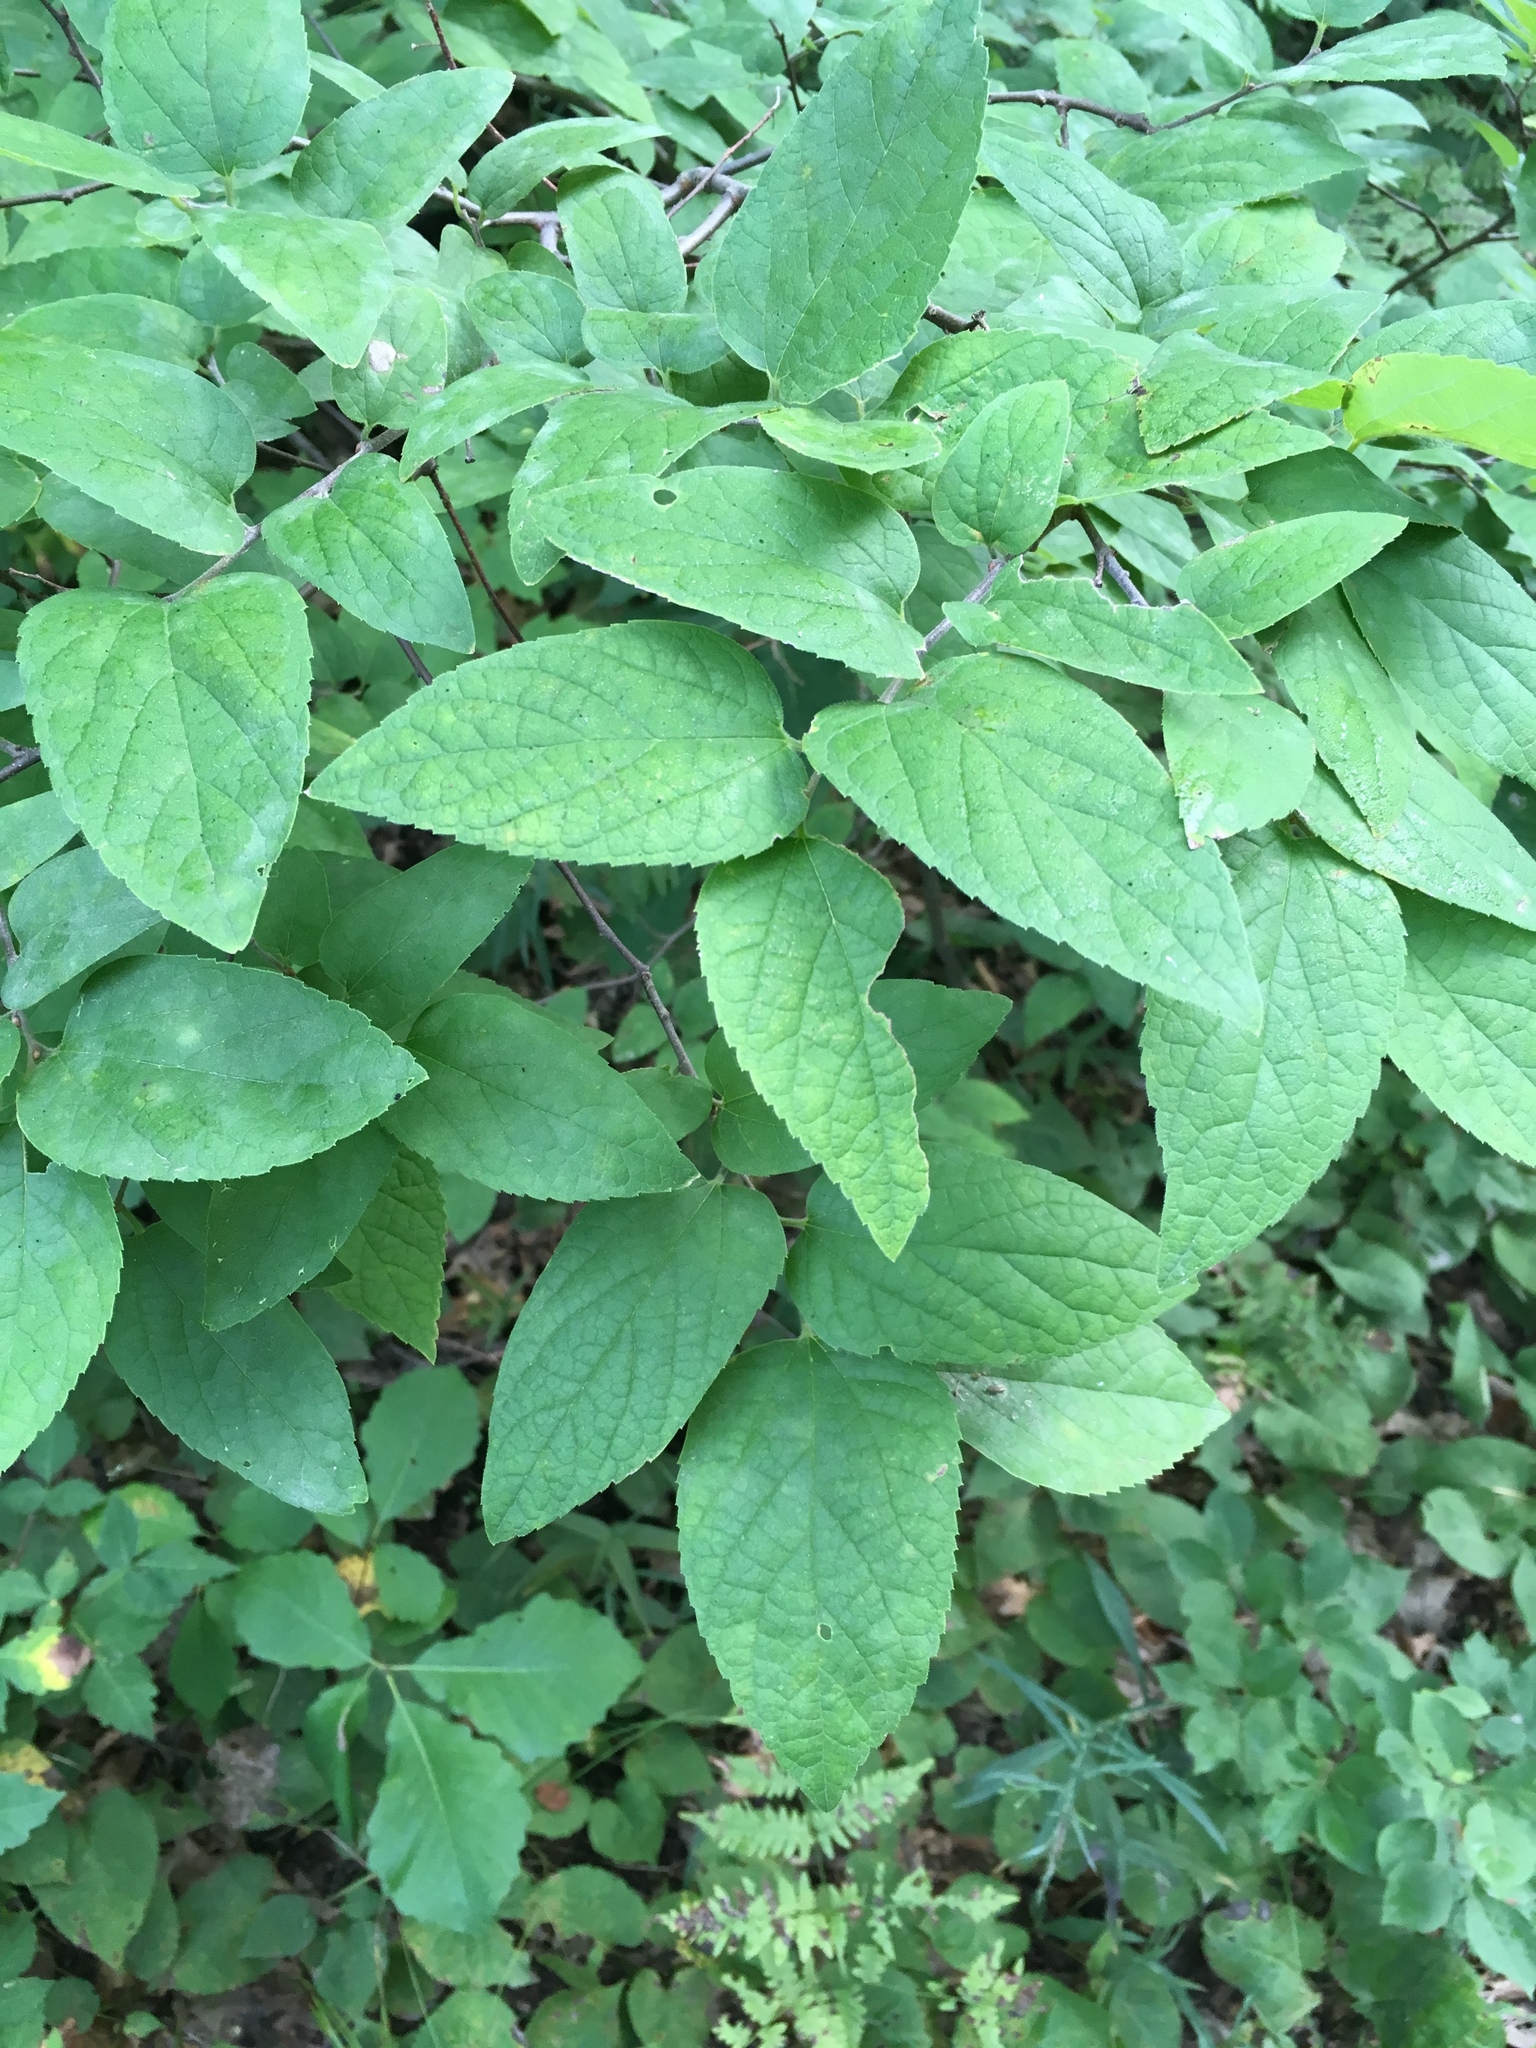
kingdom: Plantae
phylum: Tracheophyta
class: Magnoliopsida
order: Rosales
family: Cannabaceae
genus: Celtis
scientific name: Celtis tenuifolia
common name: Georgia hackberry
